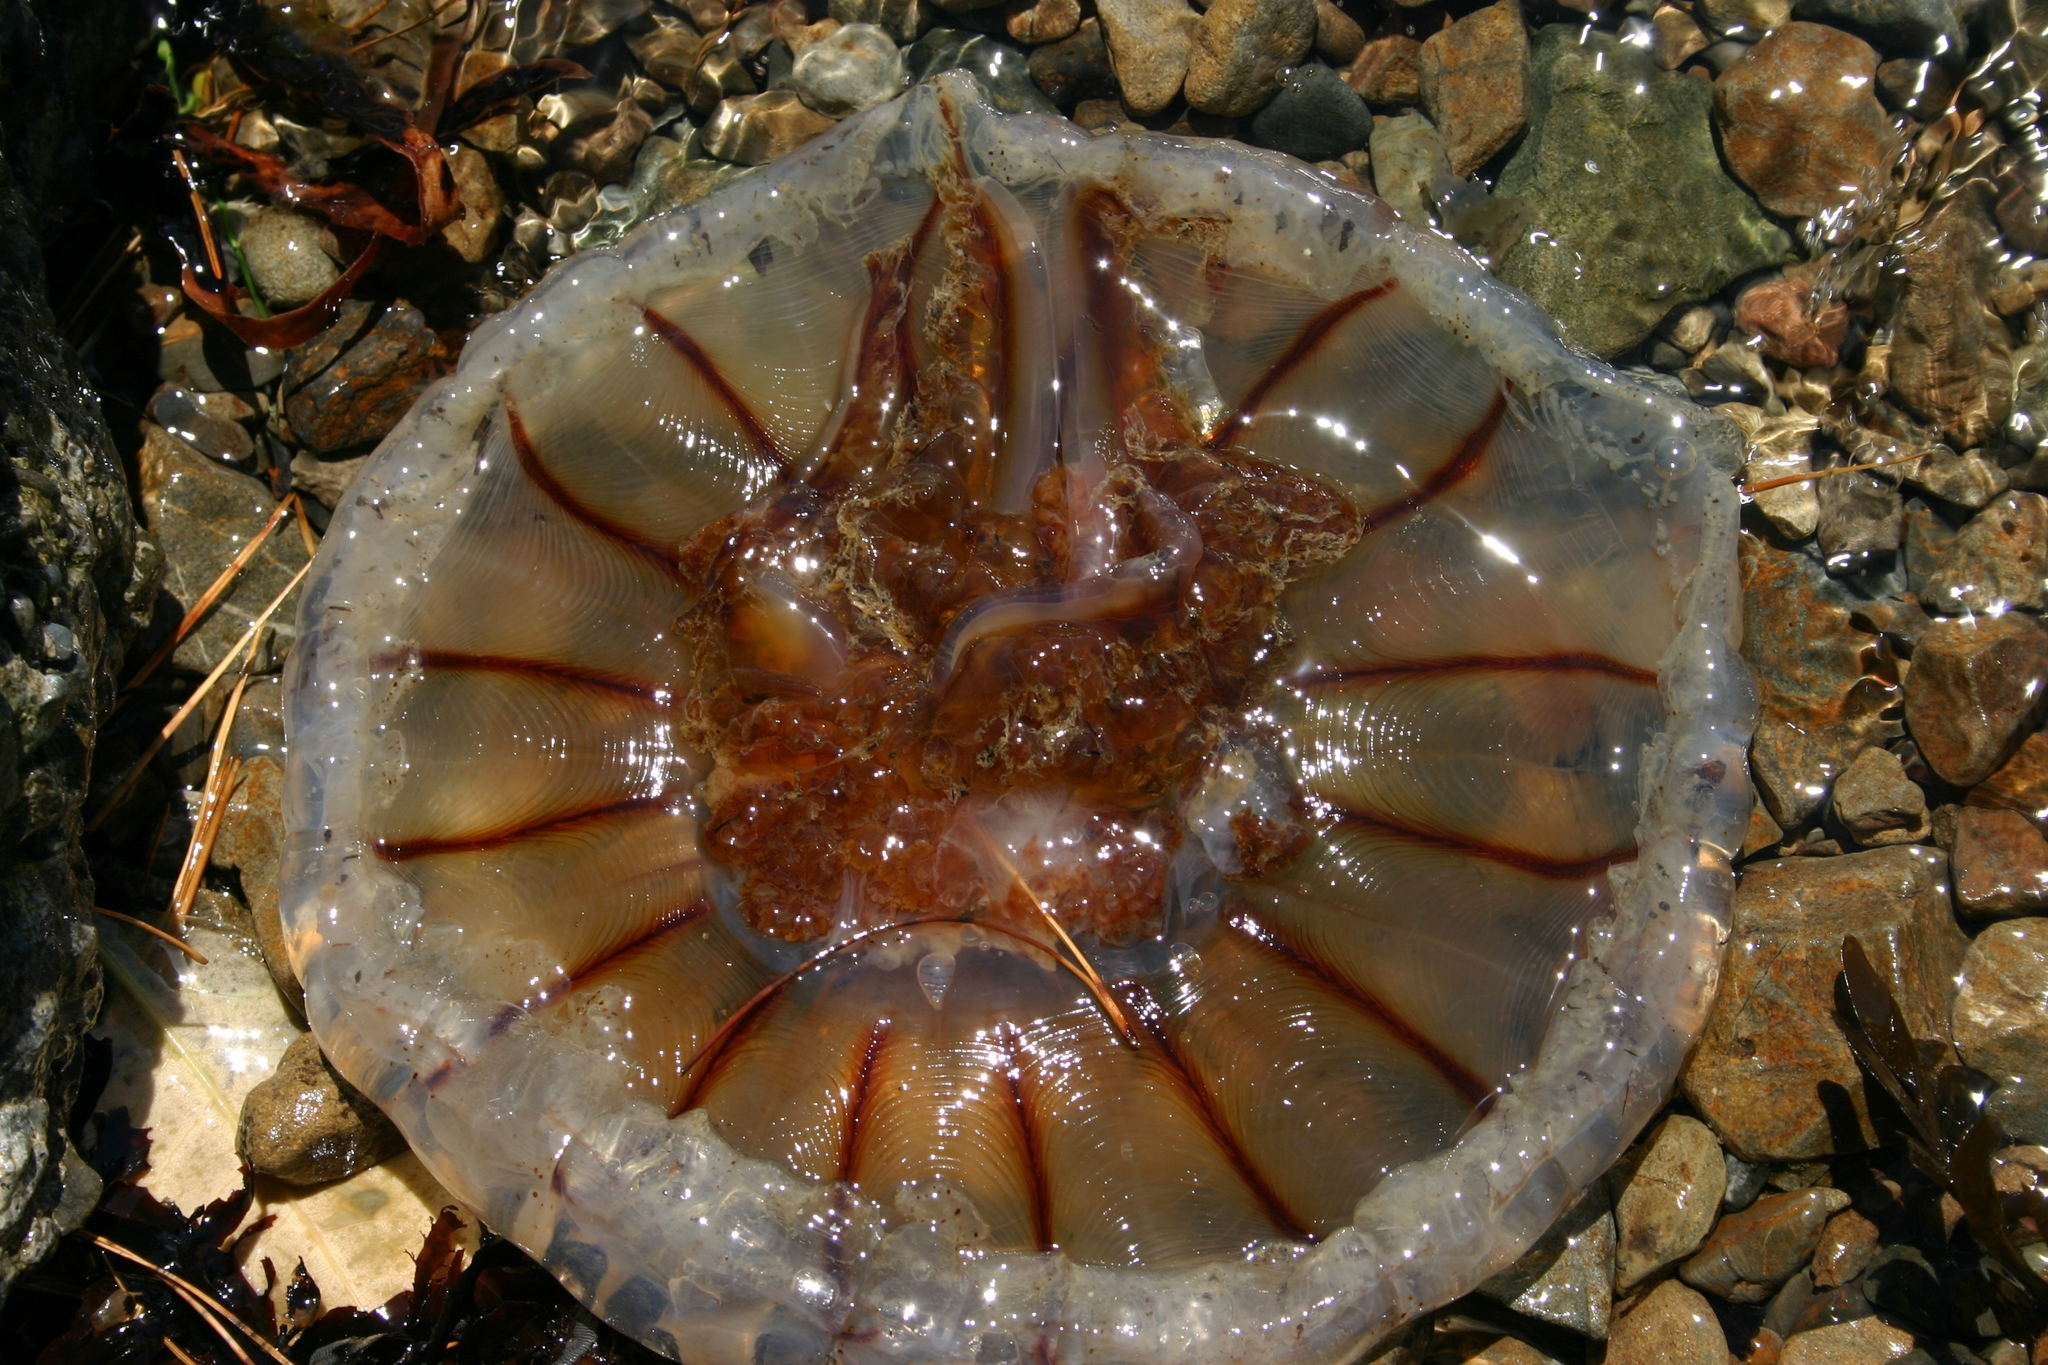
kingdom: Animalia
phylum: Cnidaria
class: Scyphozoa
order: Semaeostomeae
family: Cyaneidae
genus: Desmonema
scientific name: Desmonema gaudichaudi
